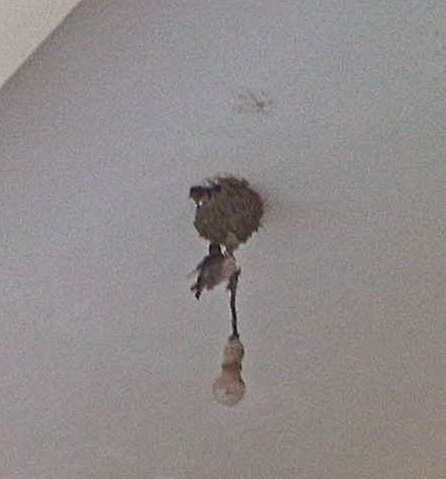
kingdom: Animalia
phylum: Chordata
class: Aves
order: Passeriformes
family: Hirundinidae
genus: Hirundo
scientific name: Hirundo rustica
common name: Barn swallow
